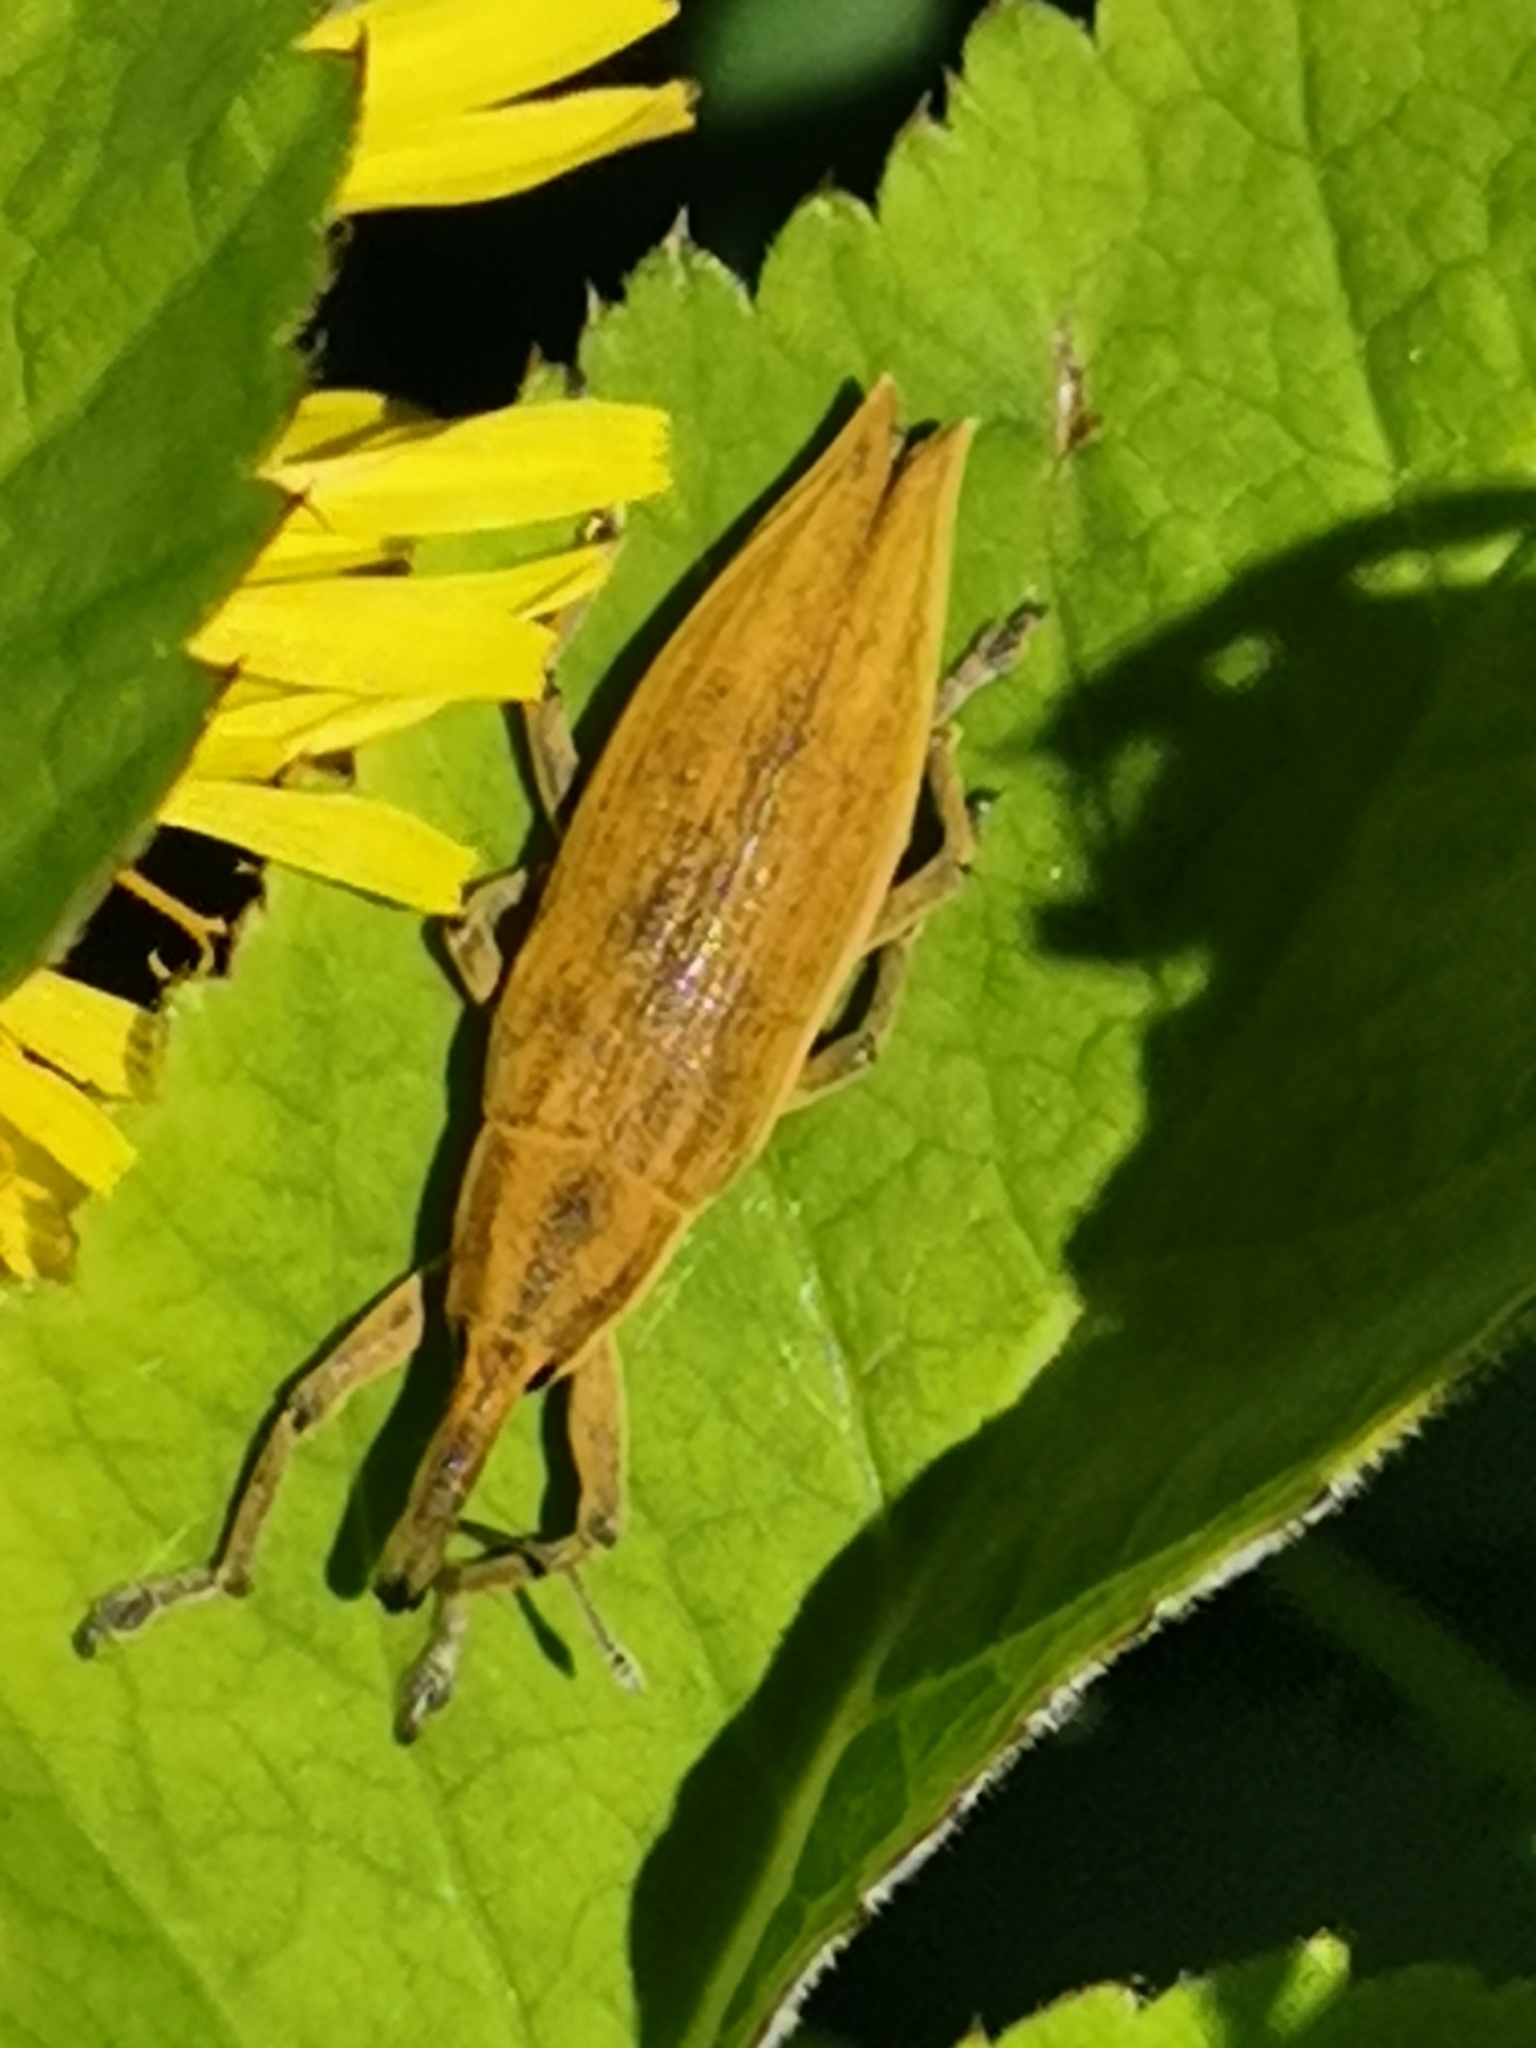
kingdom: Animalia
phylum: Arthropoda
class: Insecta
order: Coleoptera
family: Curculionidae
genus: Lixus
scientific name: Lixus iridis
